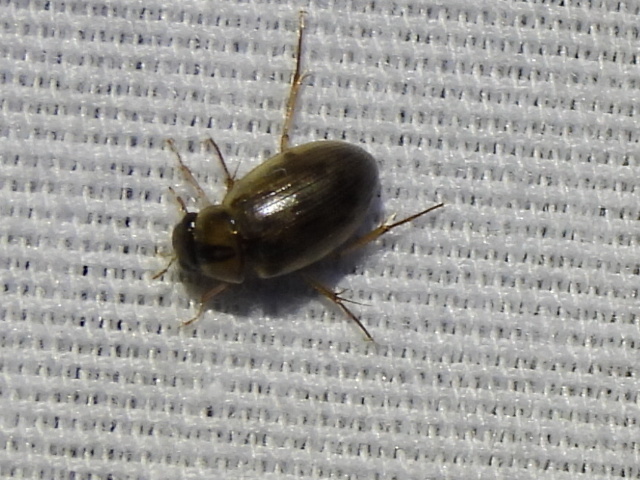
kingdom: Animalia
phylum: Arthropoda
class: Insecta
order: Coleoptera
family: Hydrophilidae
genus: Berosus
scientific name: Berosus
